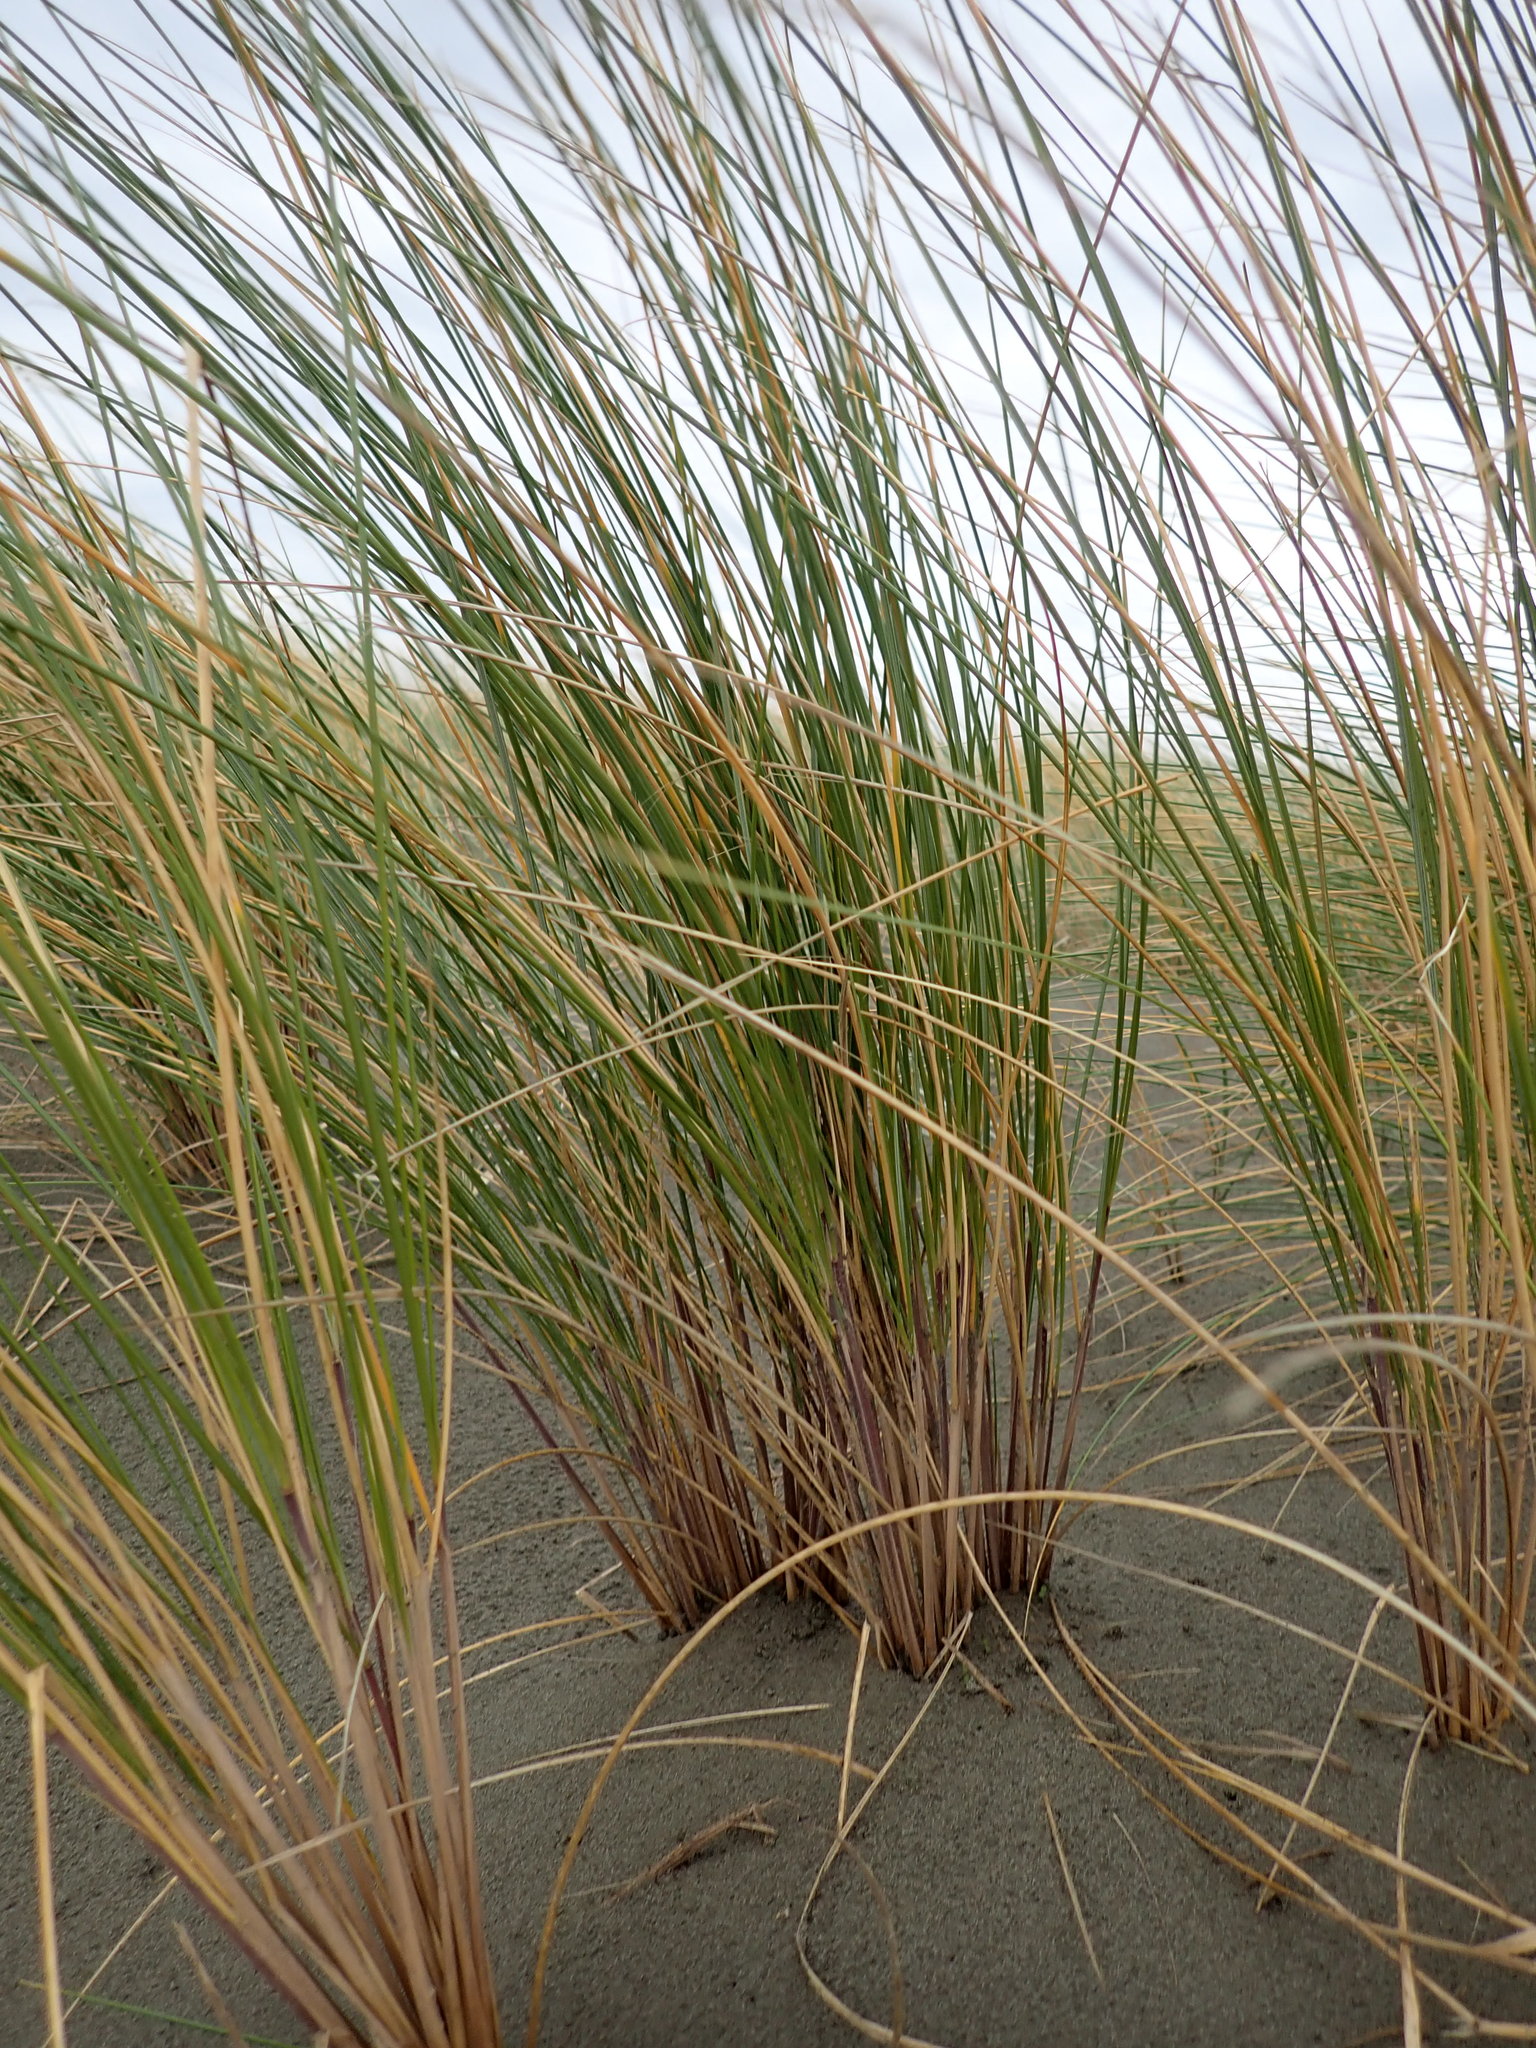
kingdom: Plantae
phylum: Tracheophyta
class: Liliopsida
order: Poales
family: Poaceae
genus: Calamagrostis
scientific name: Calamagrostis arenaria
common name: European beachgrass
